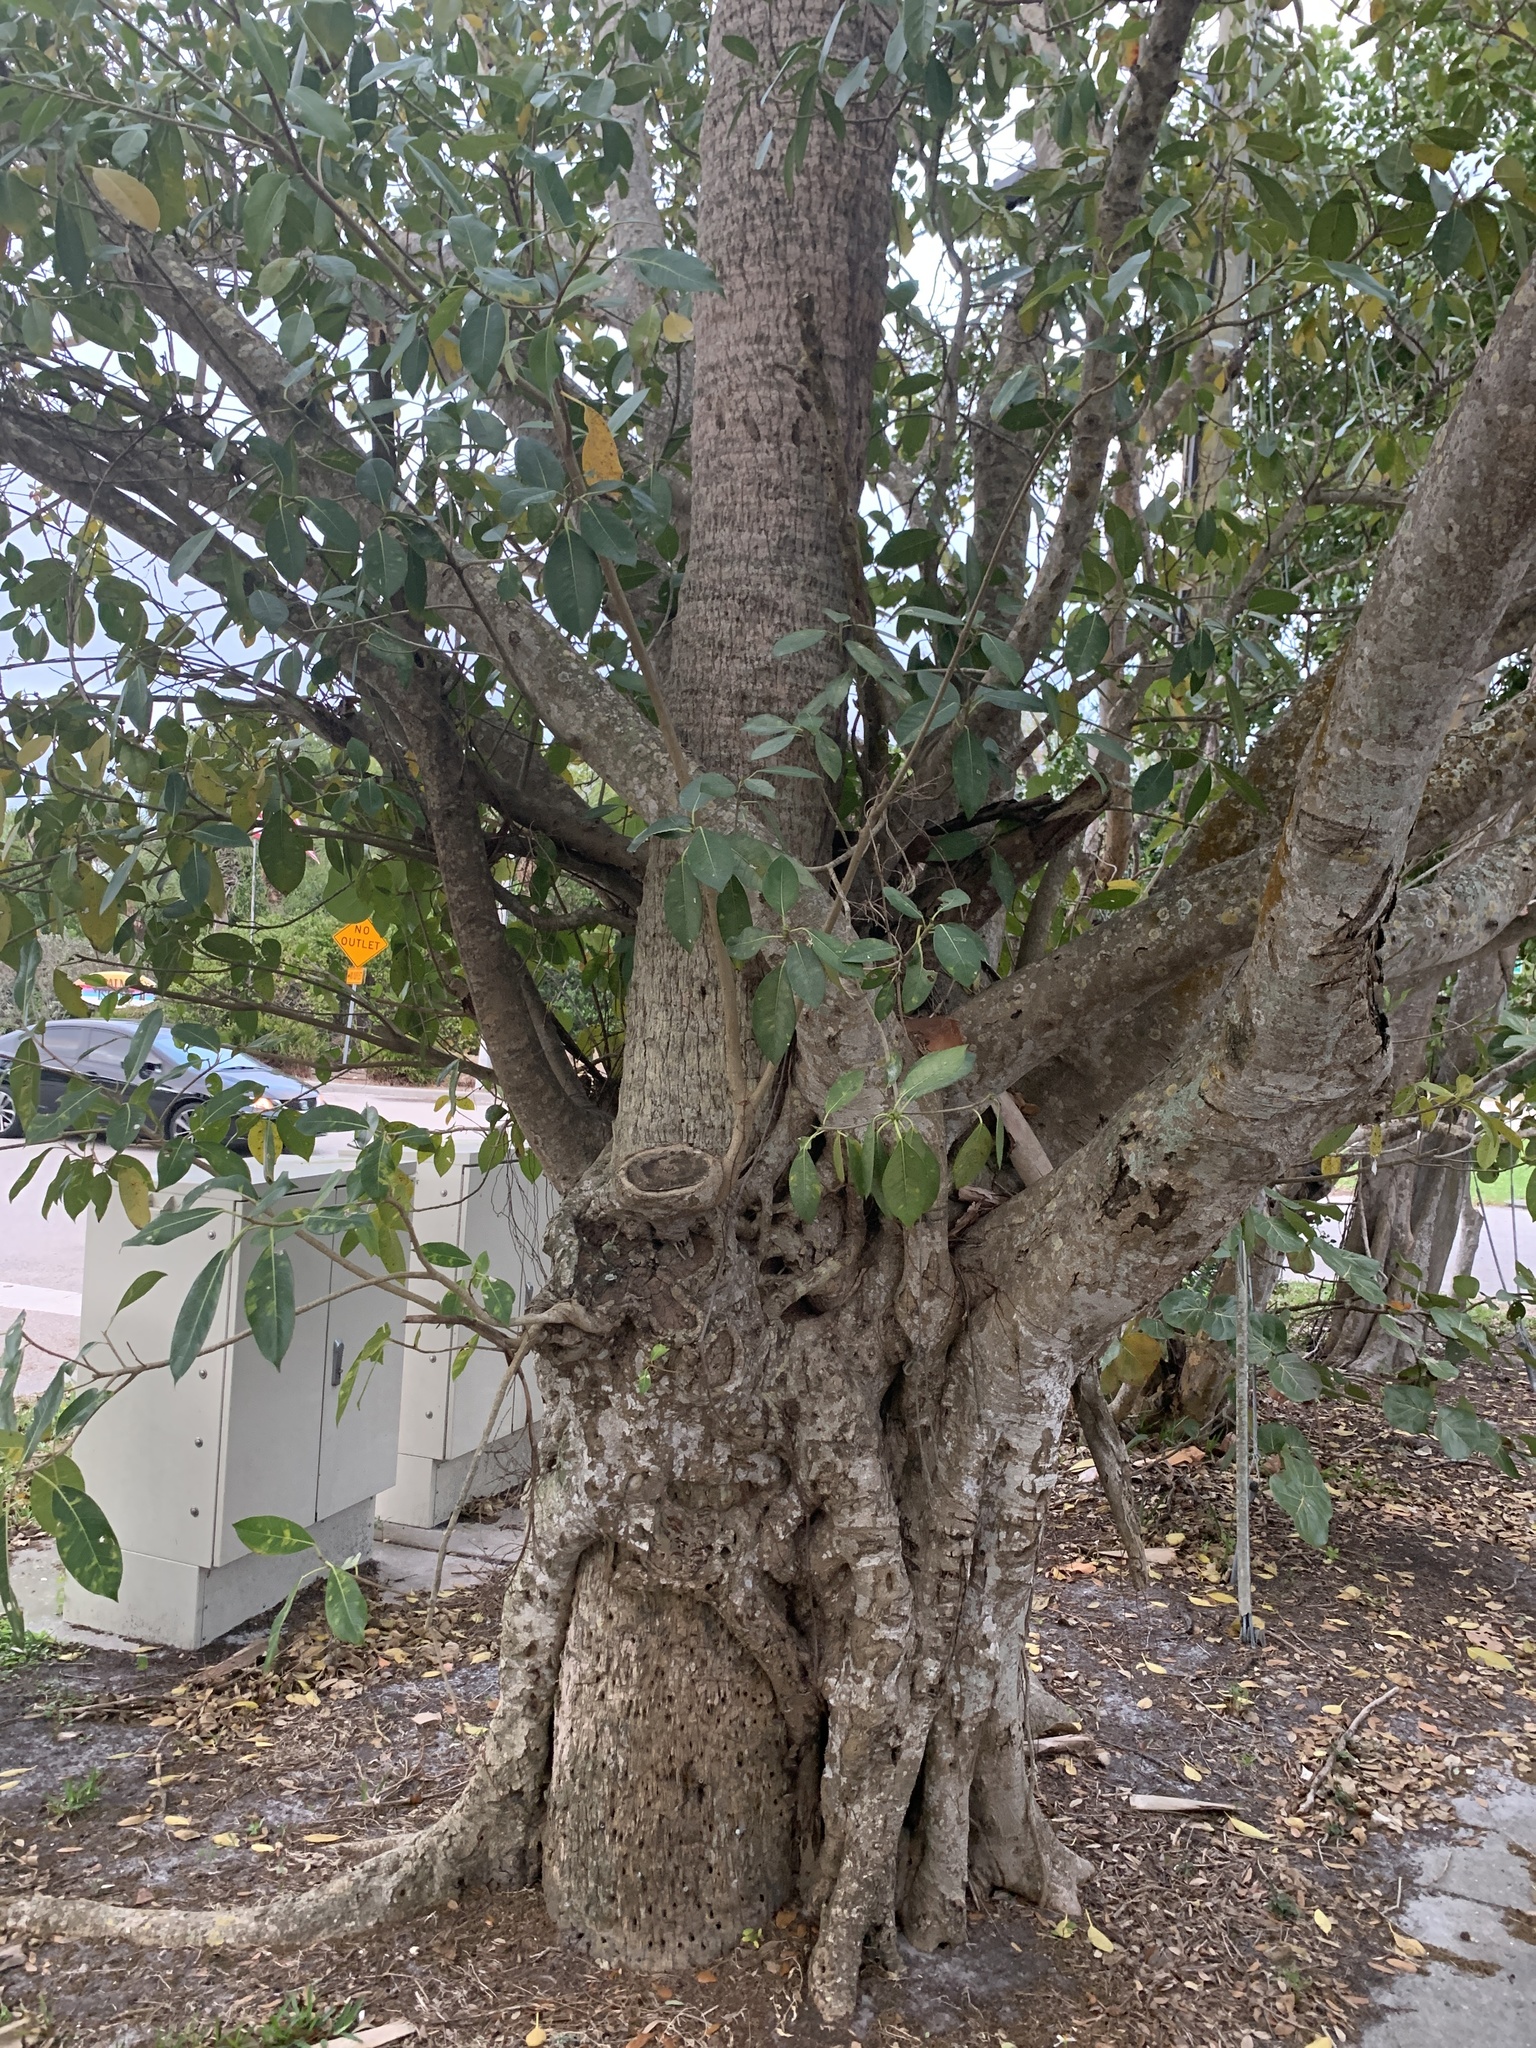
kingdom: Plantae
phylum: Tracheophyta
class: Magnoliopsida
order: Rosales
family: Moraceae
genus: Ficus
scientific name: Ficus aurea
